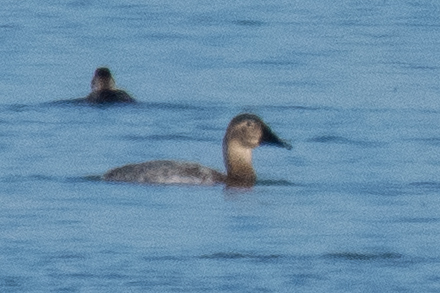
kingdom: Animalia
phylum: Chordata
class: Aves
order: Anseriformes
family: Anatidae
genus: Aythya
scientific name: Aythya valisineria
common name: Canvasback
